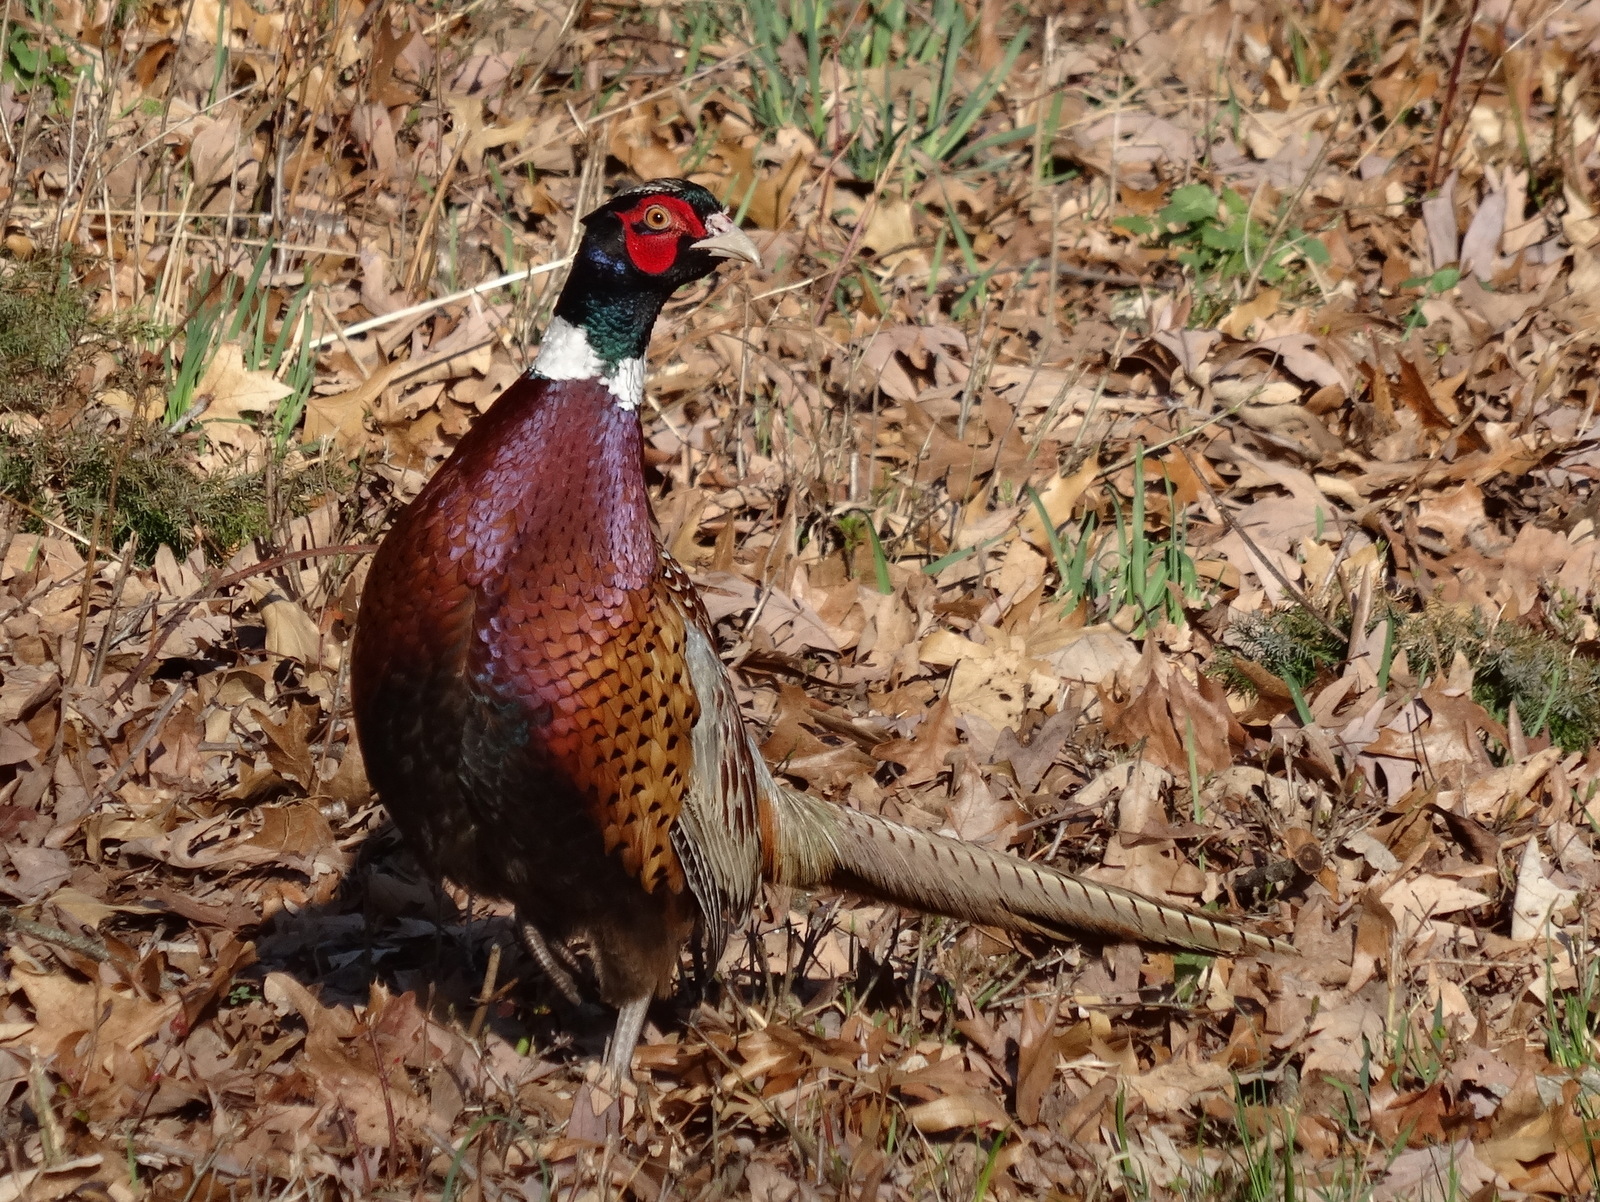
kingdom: Animalia
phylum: Chordata
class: Aves
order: Galliformes
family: Phasianidae
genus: Phasianus
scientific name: Phasianus colchicus
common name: Common pheasant
